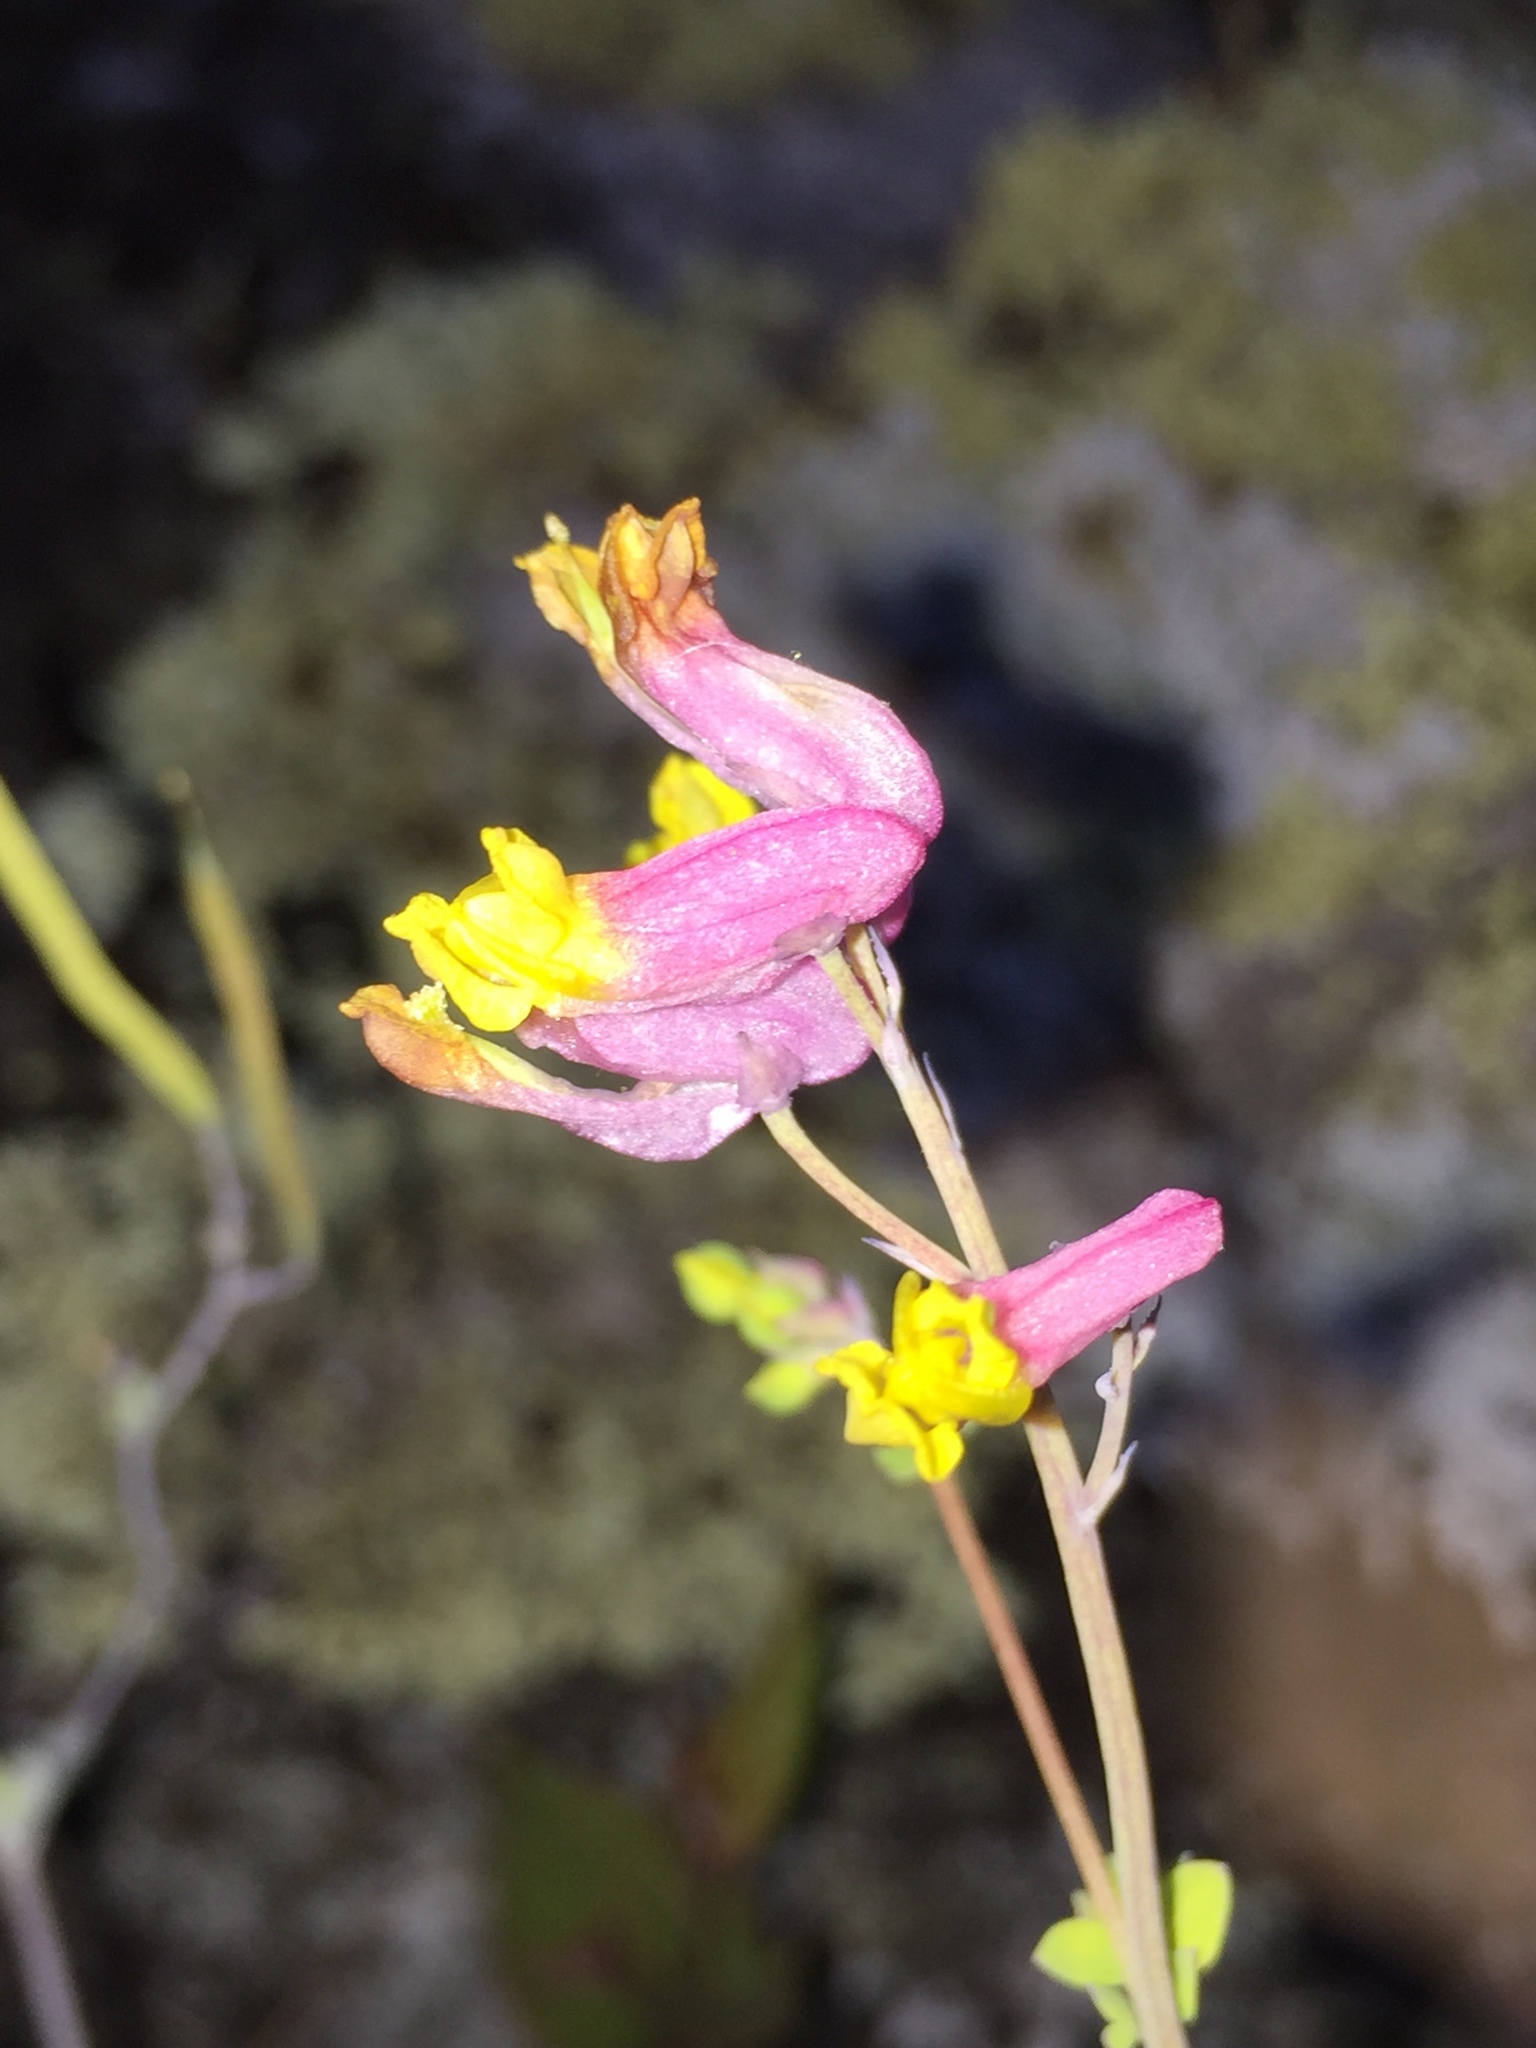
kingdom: Plantae
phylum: Tracheophyta
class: Magnoliopsida
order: Ranunculales
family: Papaveraceae
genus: Capnoides
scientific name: Capnoides sempervirens
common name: Rock harlequin
